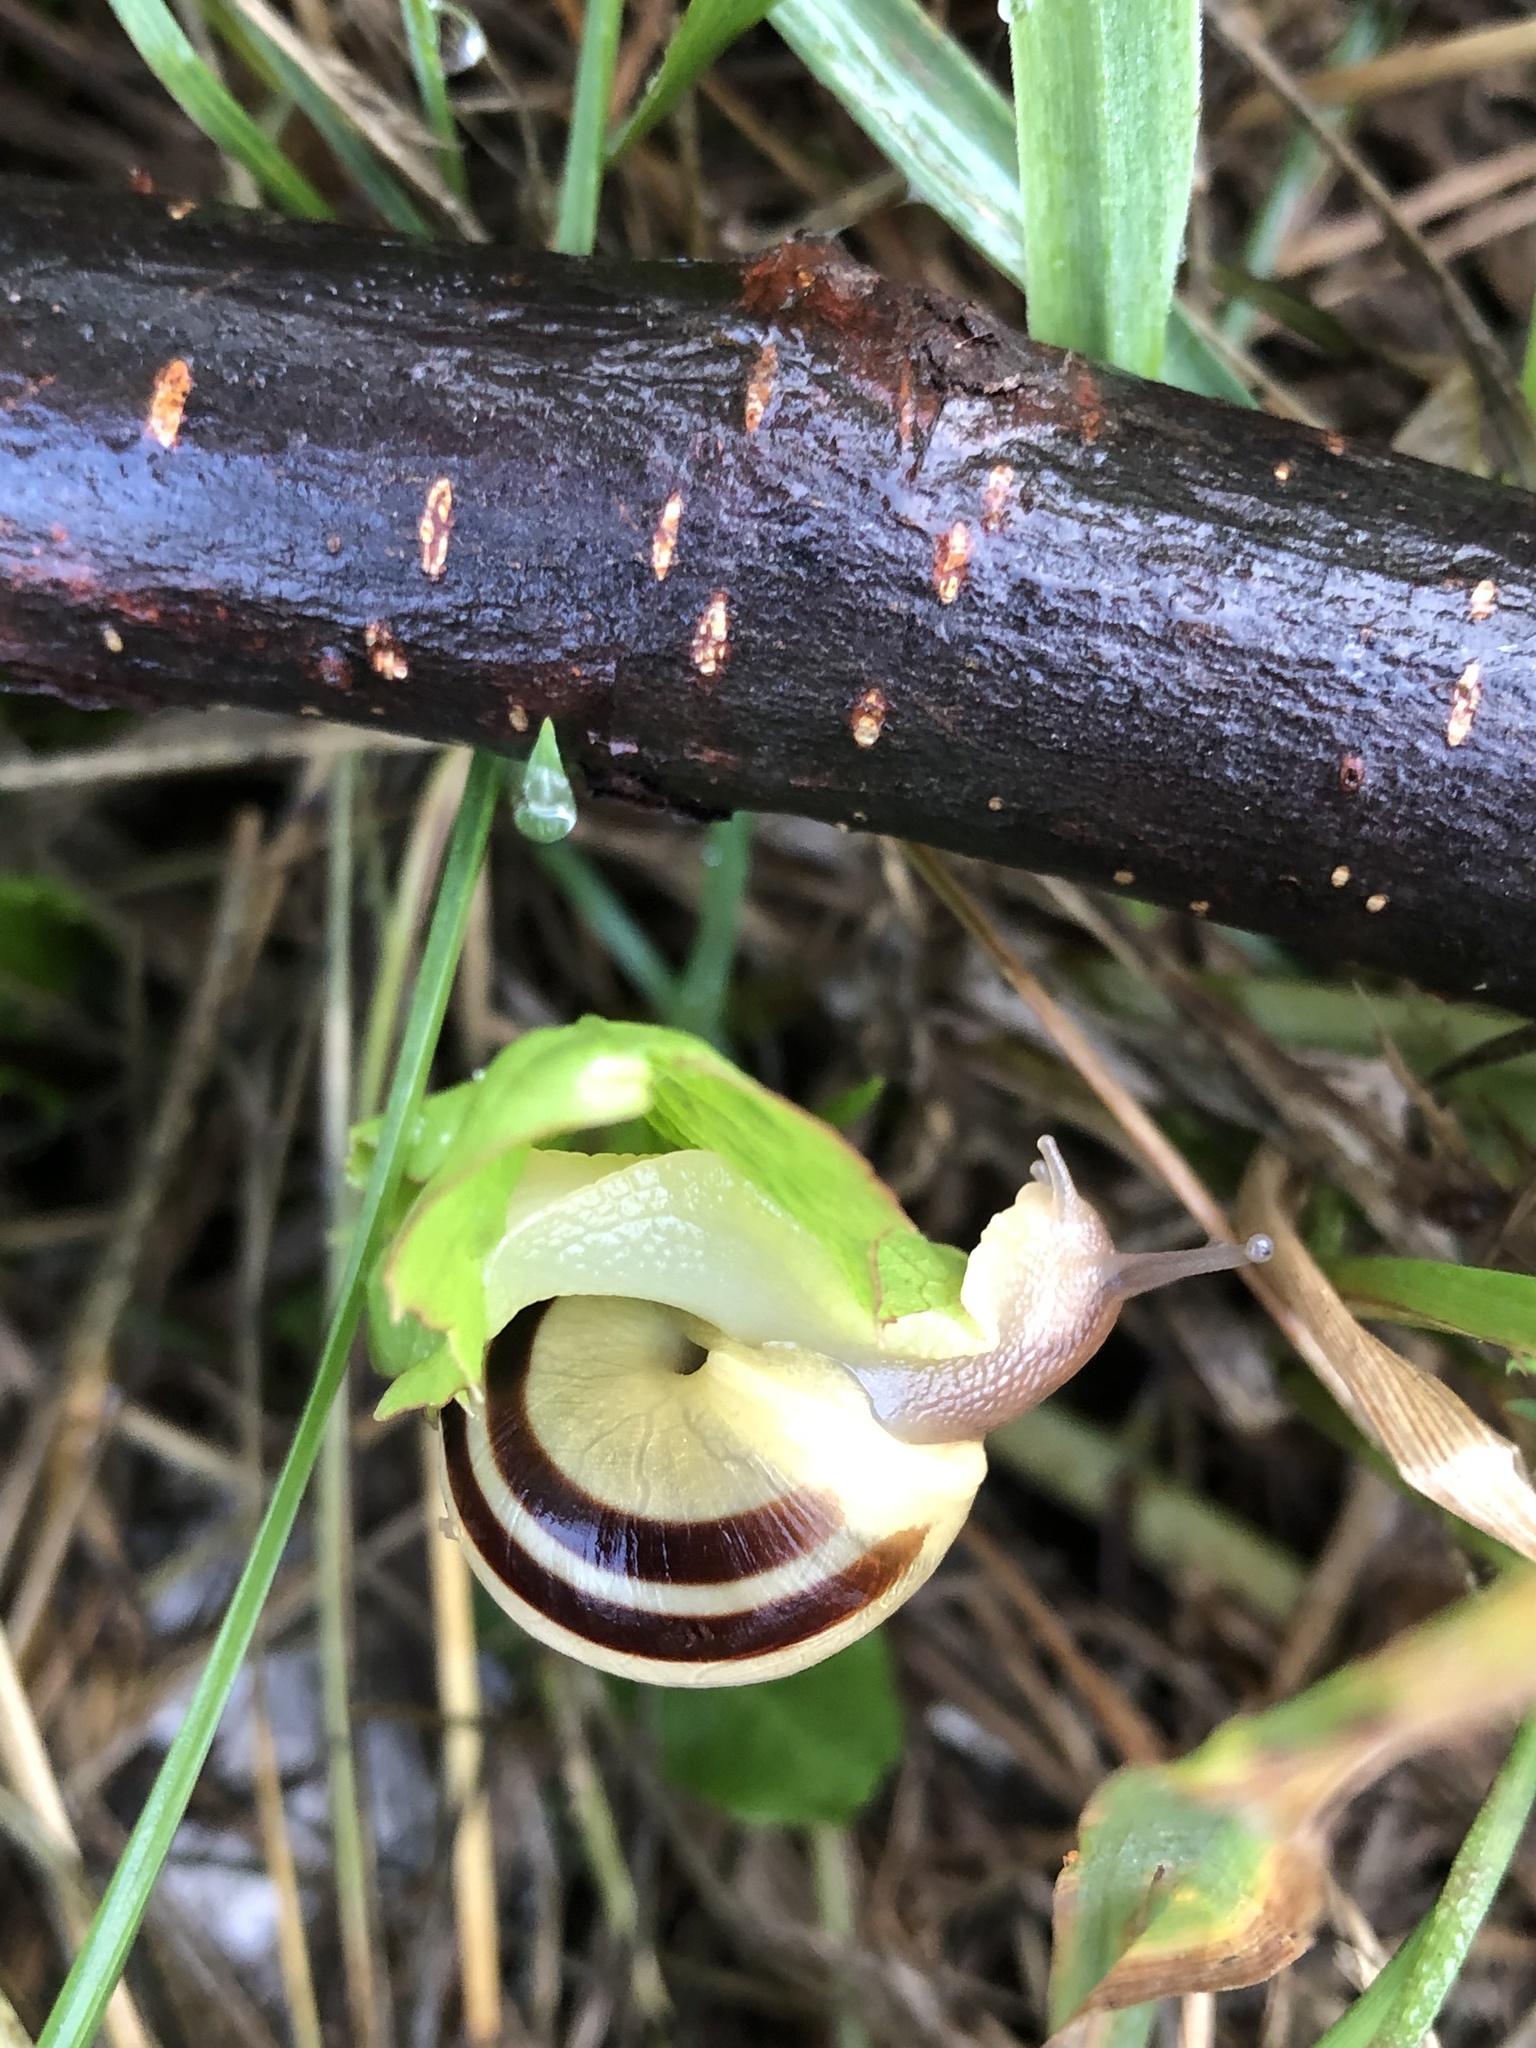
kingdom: Animalia
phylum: Mollusca
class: Gastropoda
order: Stylommatophora
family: Helicidae
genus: Cepaea
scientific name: Cepaea nemoralis
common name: Grovesnail
